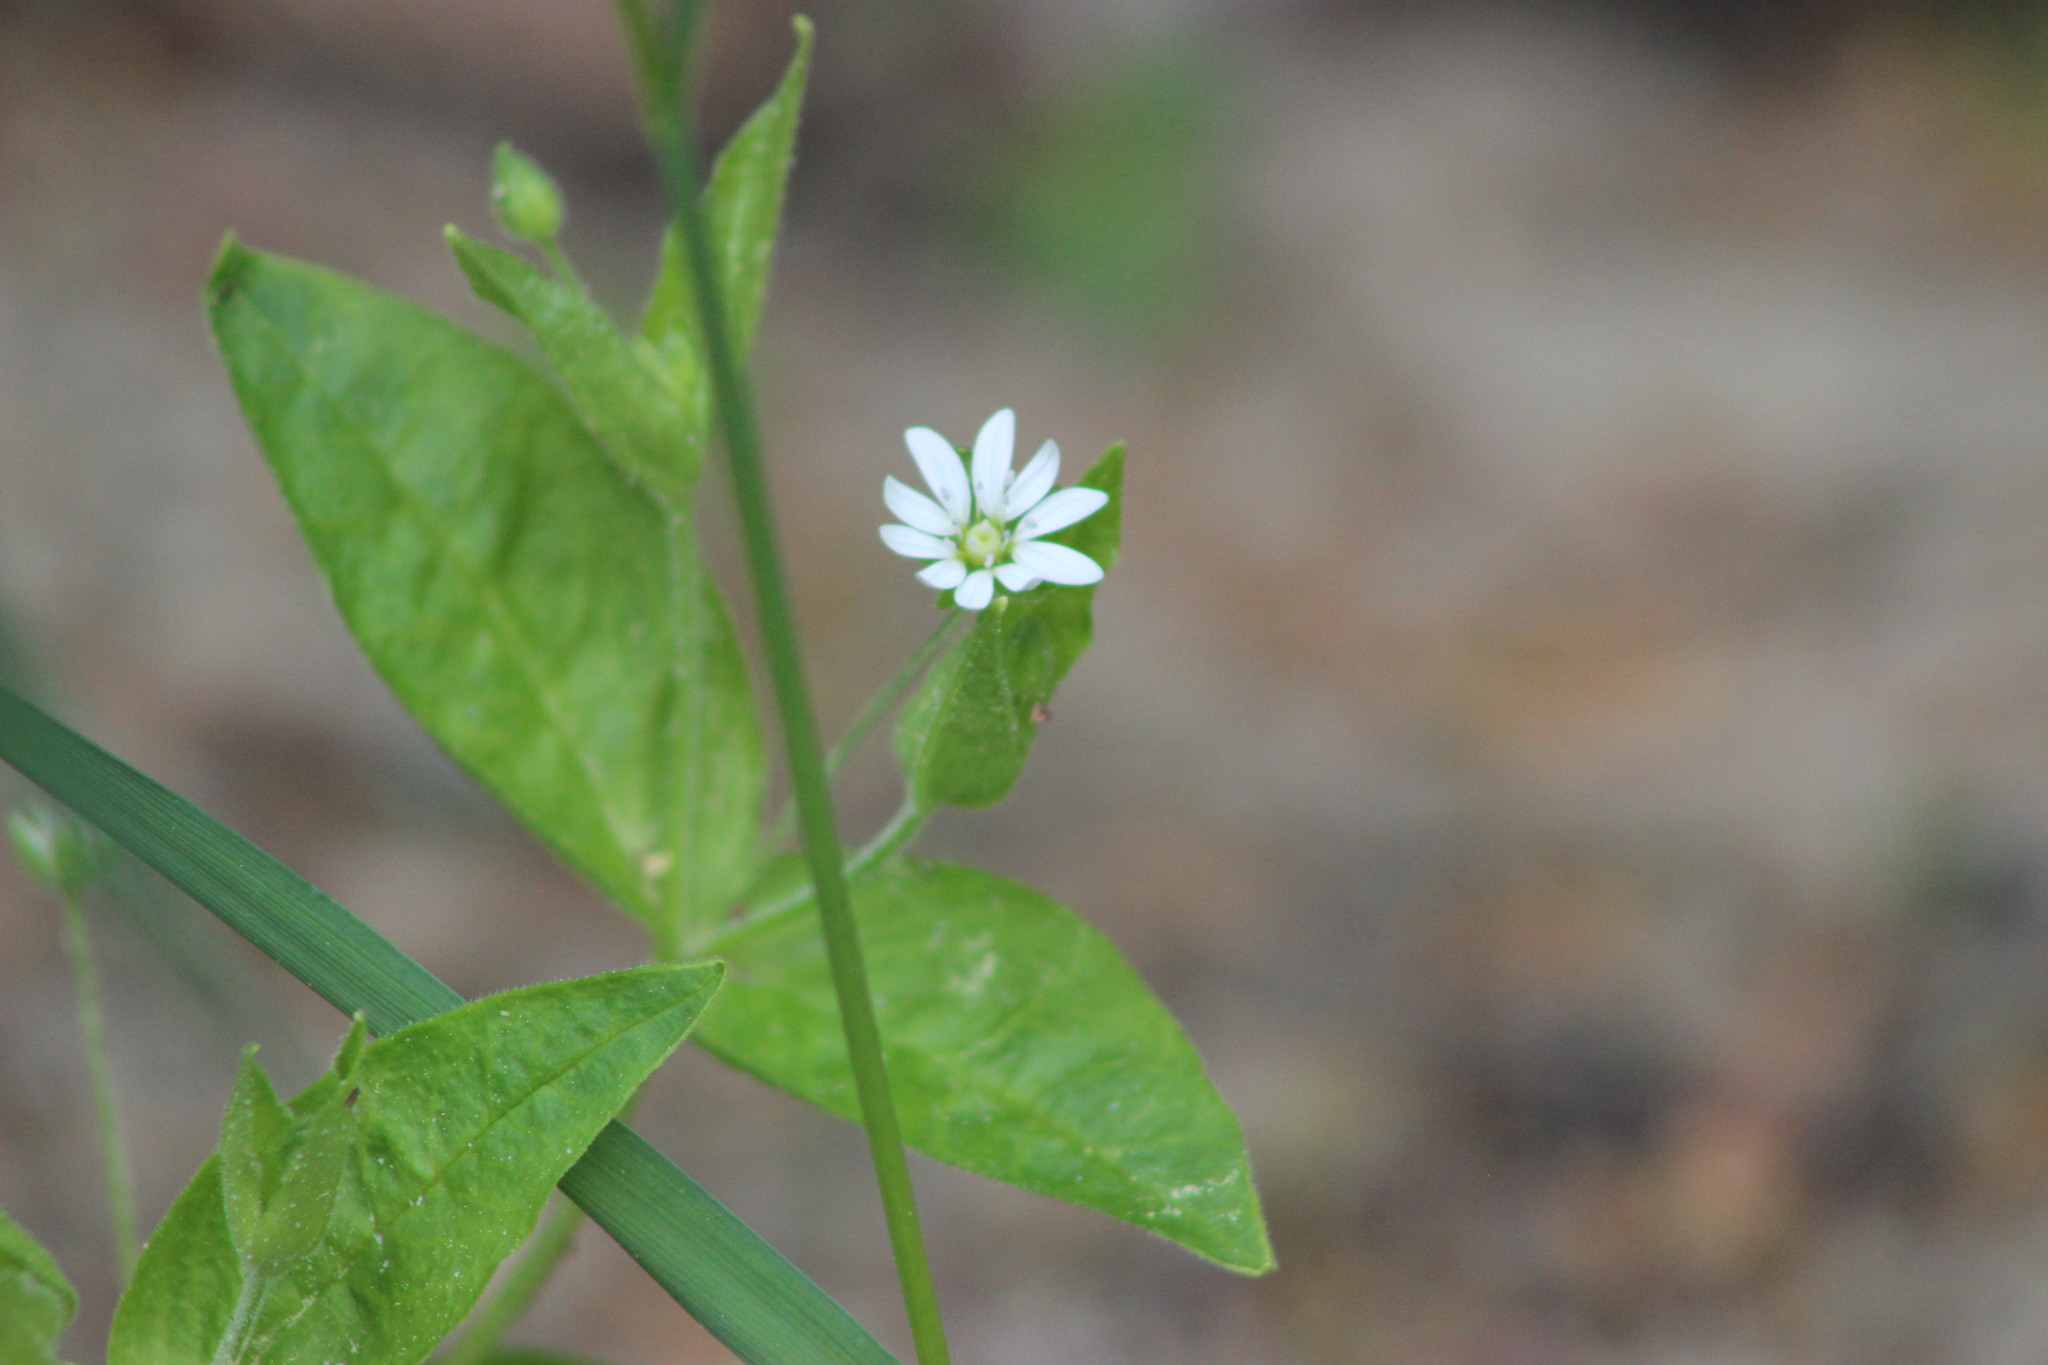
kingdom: Plantae
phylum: Tracheophyta
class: Magnoliopsida
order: Caryophyllales
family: Caryophyllaceae
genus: Stellaria
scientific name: Stellaria bungeana
